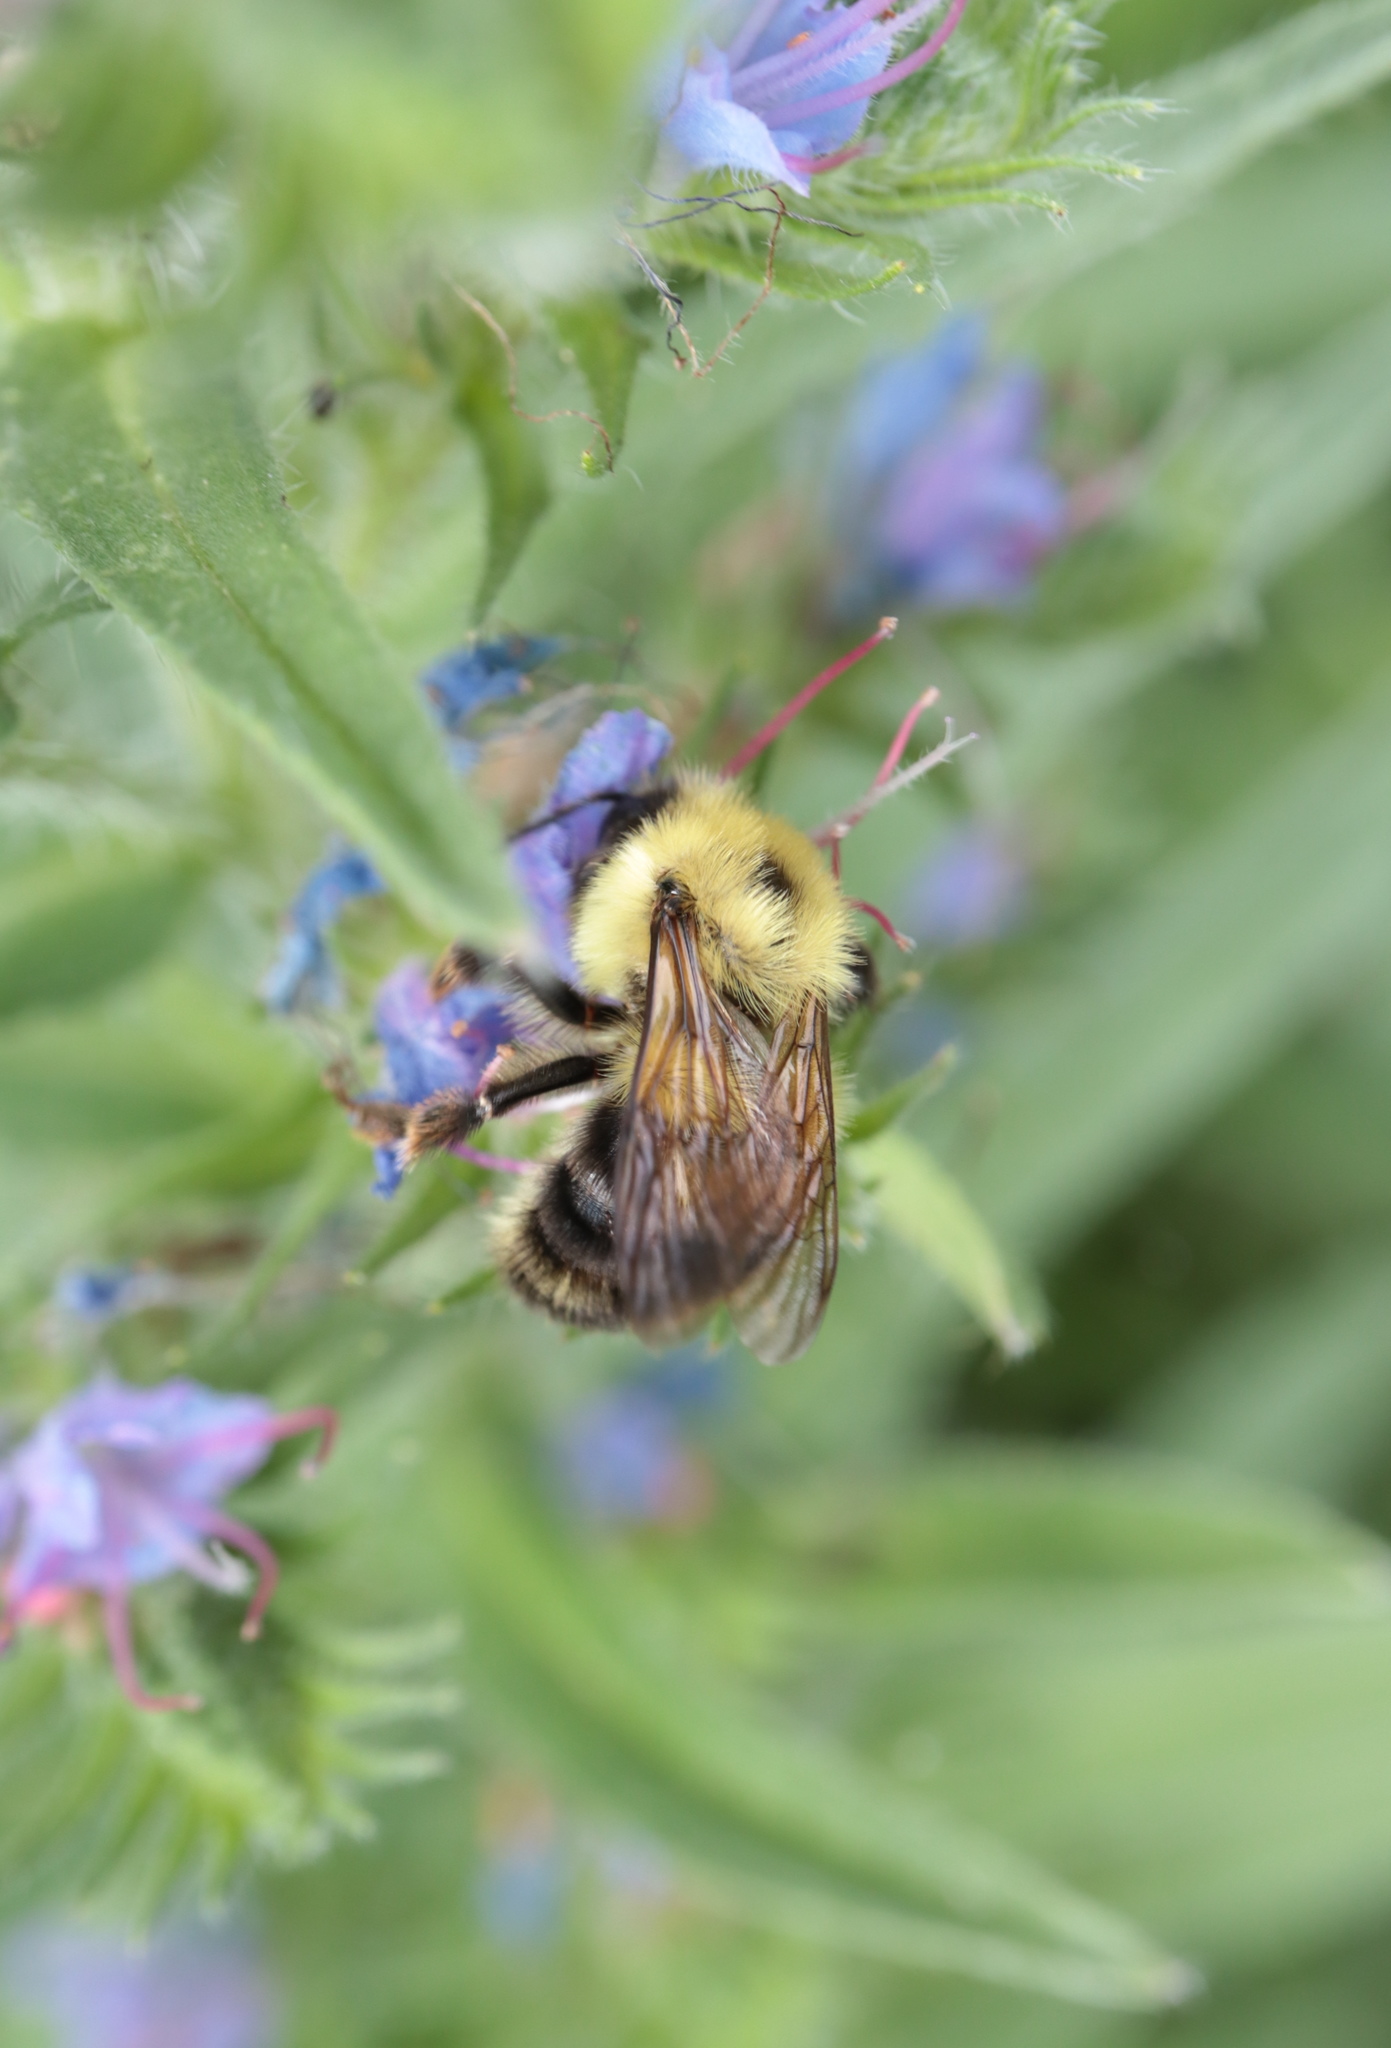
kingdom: Animalia
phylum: Arthropoda
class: Insecta
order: Hymenoptera
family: Apidae
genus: Bombus
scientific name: Bombus bimaculatus
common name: Two-spotted bumble bee
